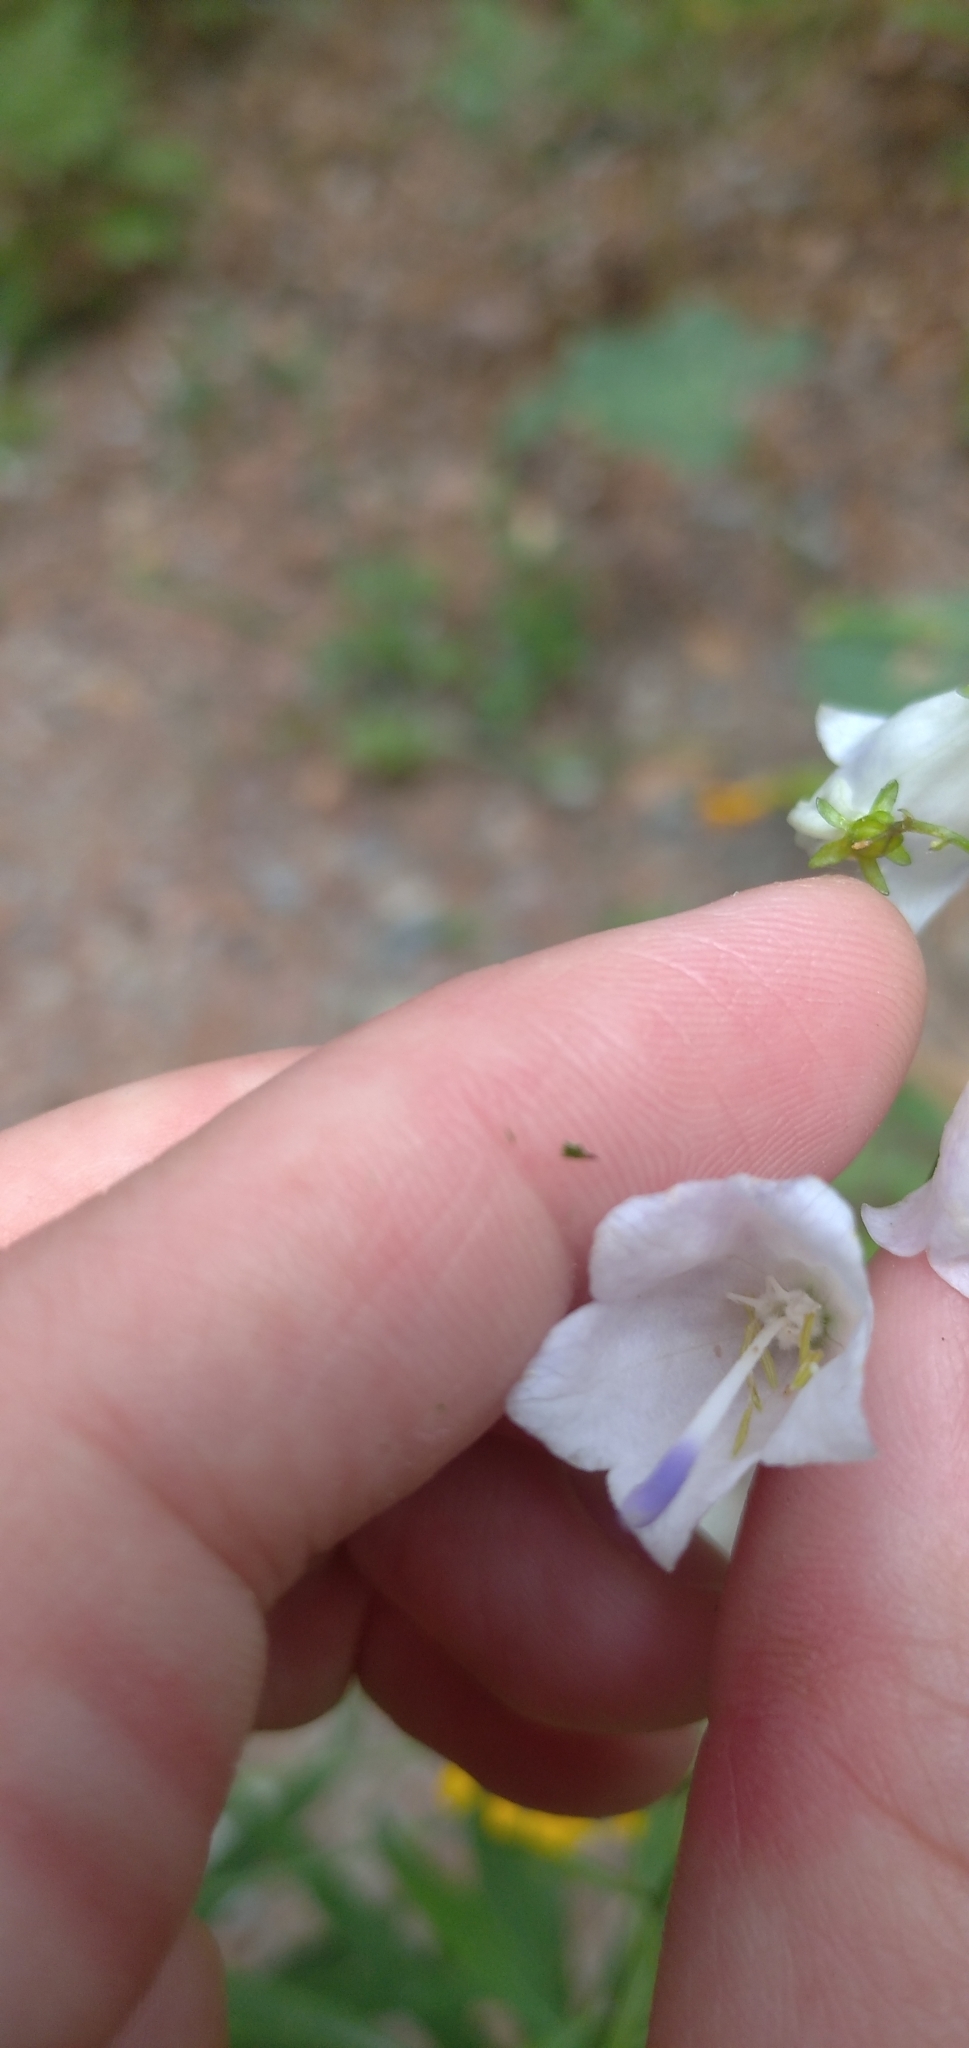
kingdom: Plantae
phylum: Tracheophyta
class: Magnoliopsida
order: Asterales
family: Campanulaceae
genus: Adenophora
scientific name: Adenophora liliifolia
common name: Lilyleaf ladybells
